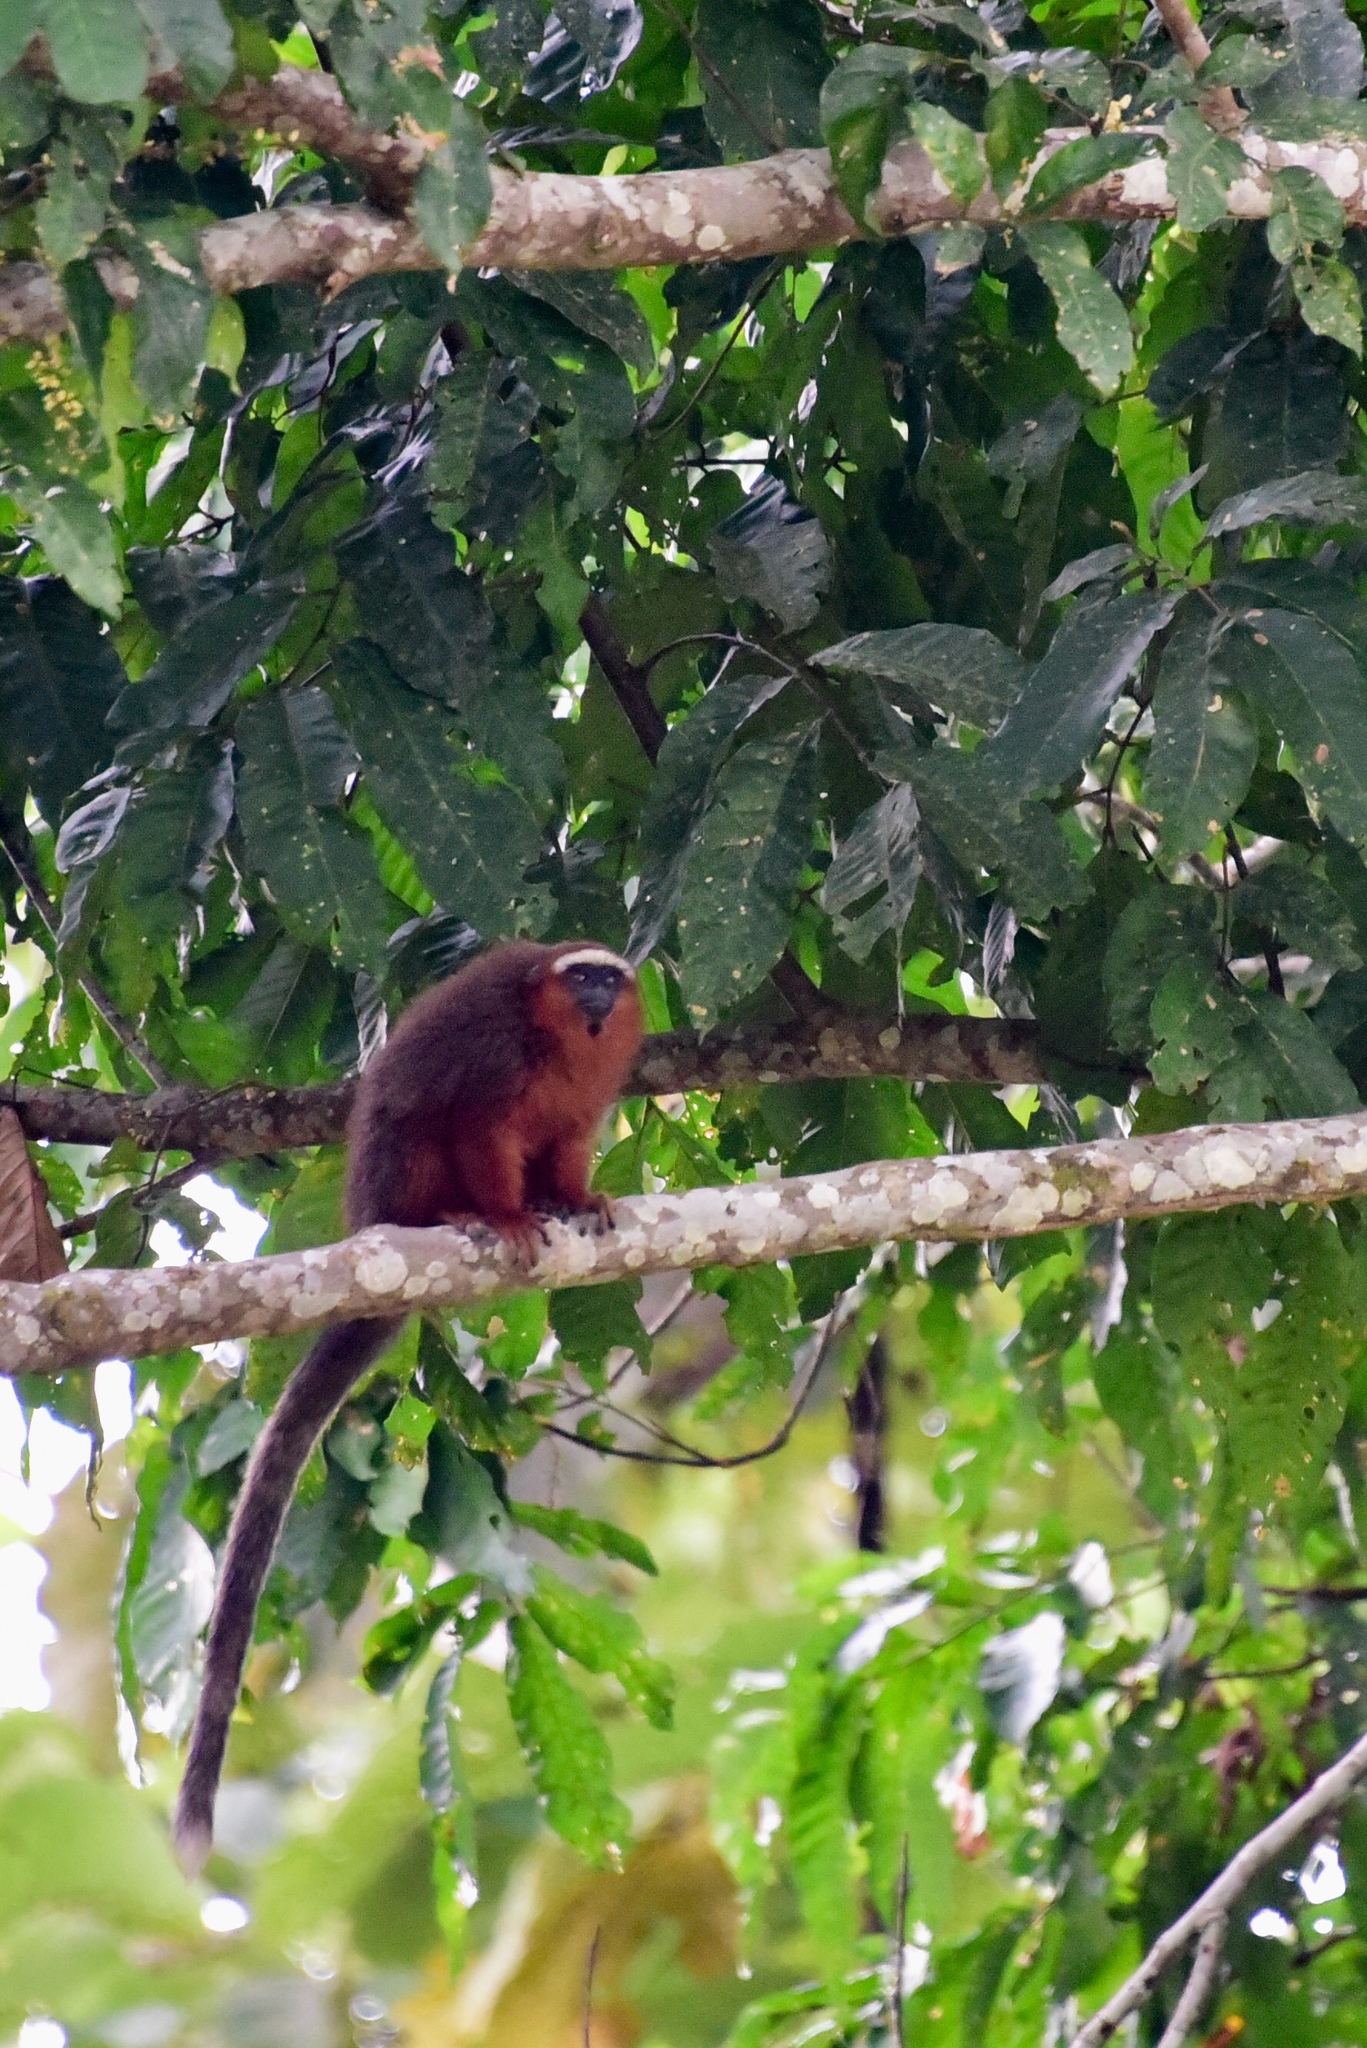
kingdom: Animalia
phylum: Chordata
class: Mammalia
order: Primates
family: Pitheciidae
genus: Plecturocebus
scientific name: Plecturocebus discolor
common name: Red-crowned titi
